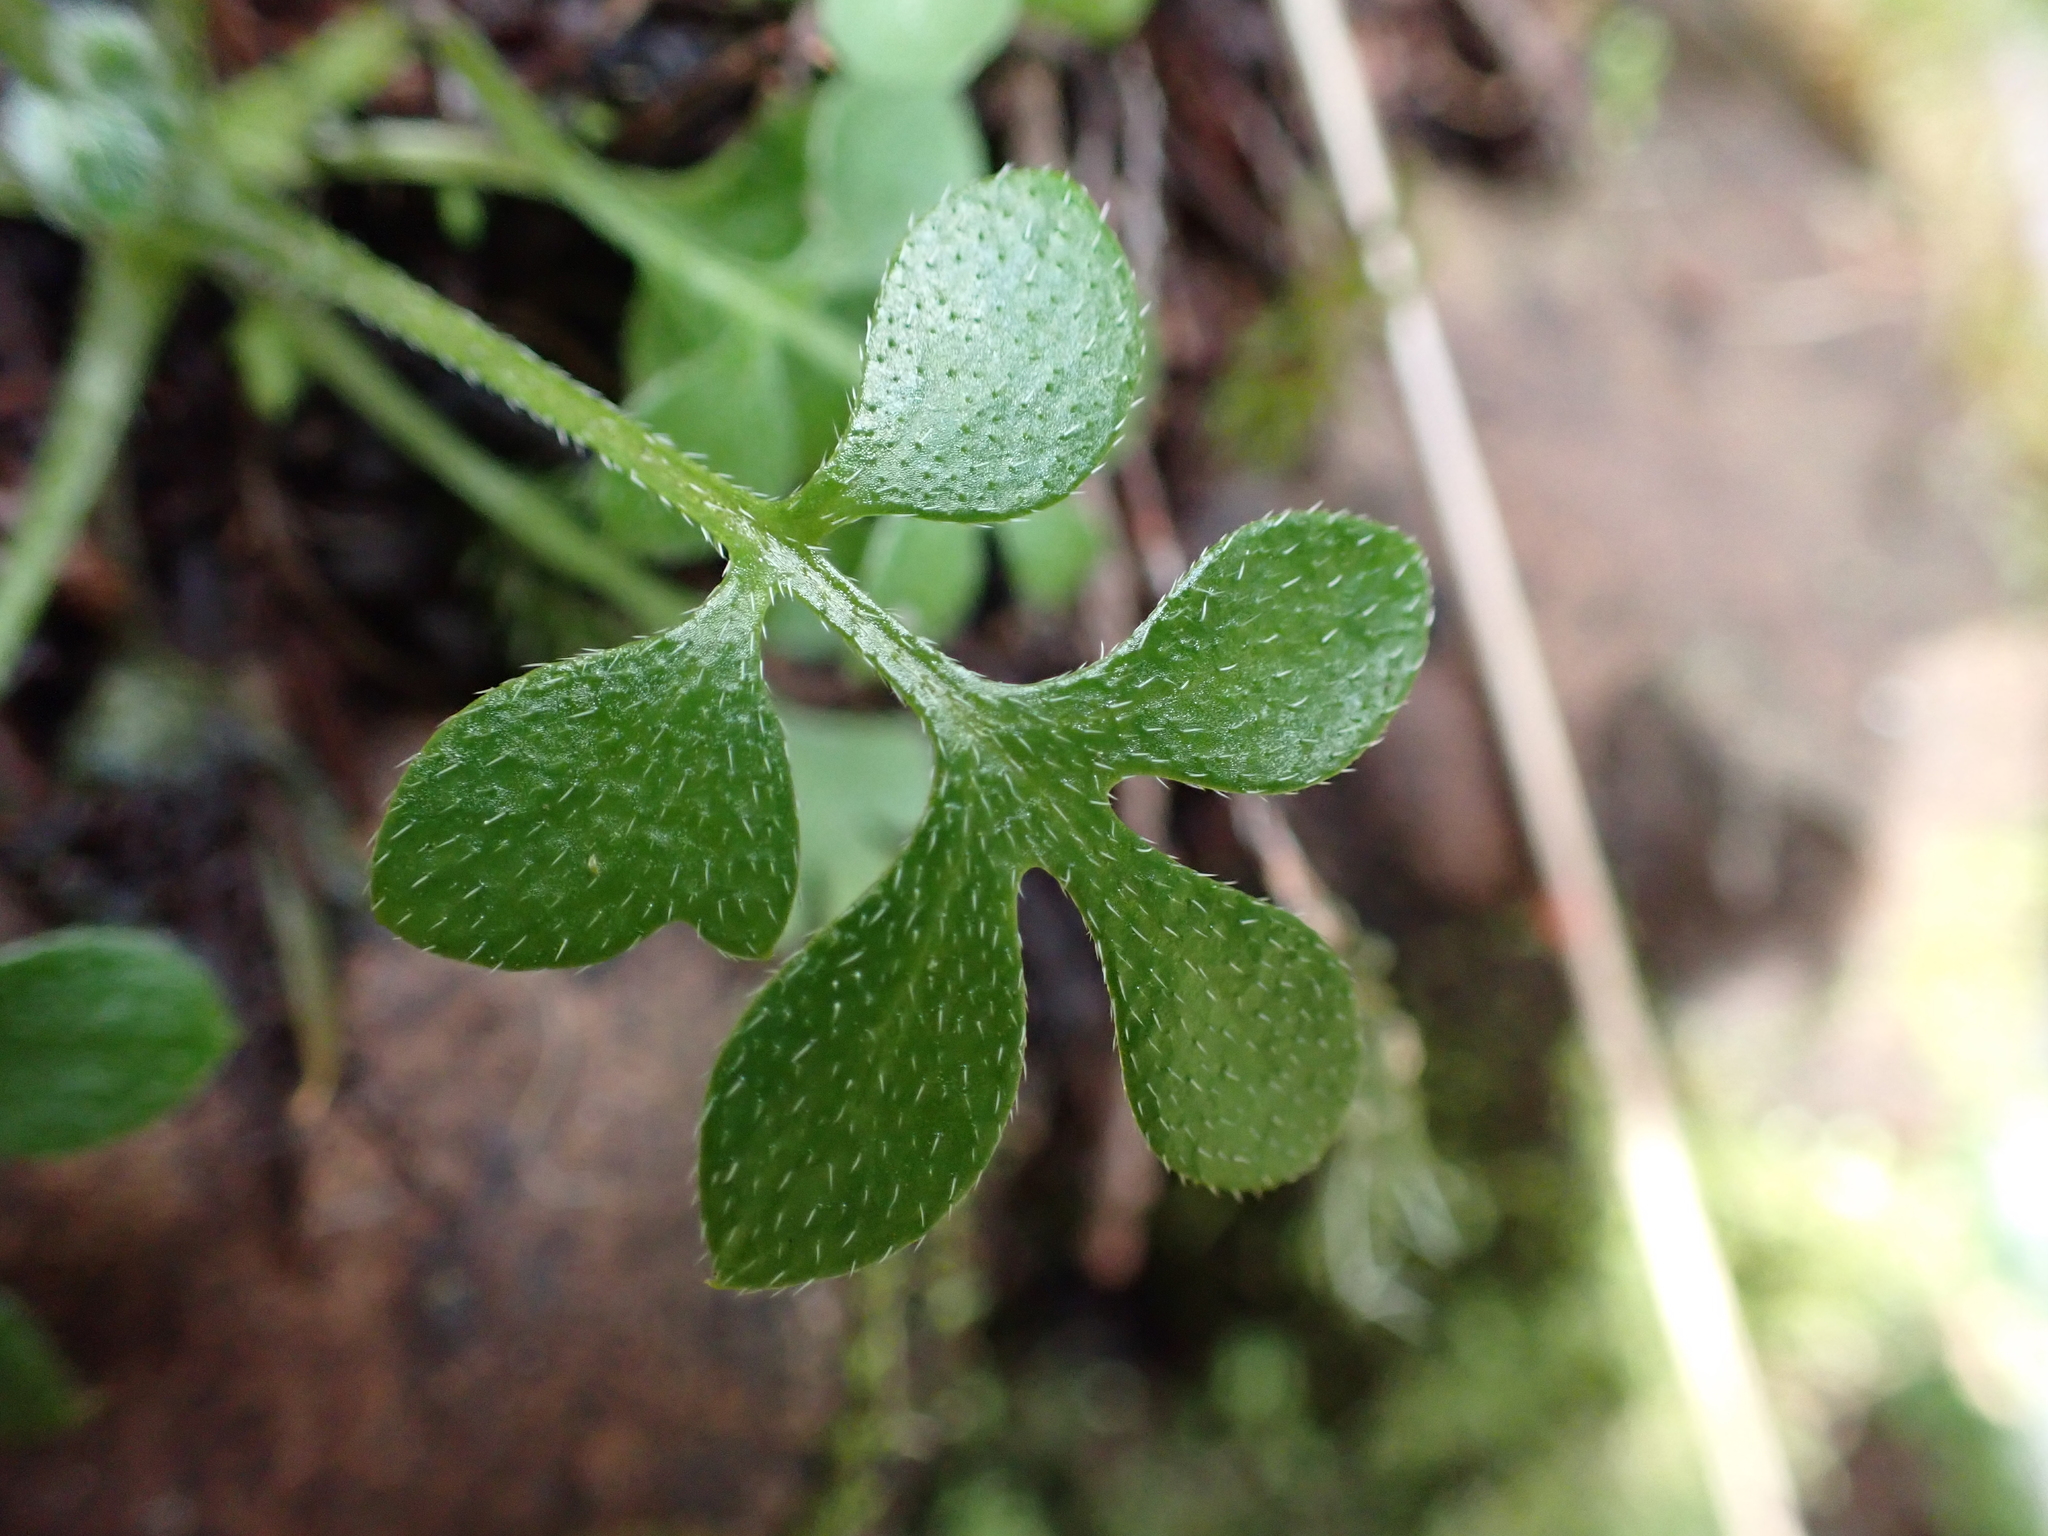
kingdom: Plantae
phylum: Tracheophyta
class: Magnoliopsida
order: Boraginales
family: Hydrophyllaceae
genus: Nemophila
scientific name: Nemophila parviflora
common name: Small-flowered baby-blue-eyes
